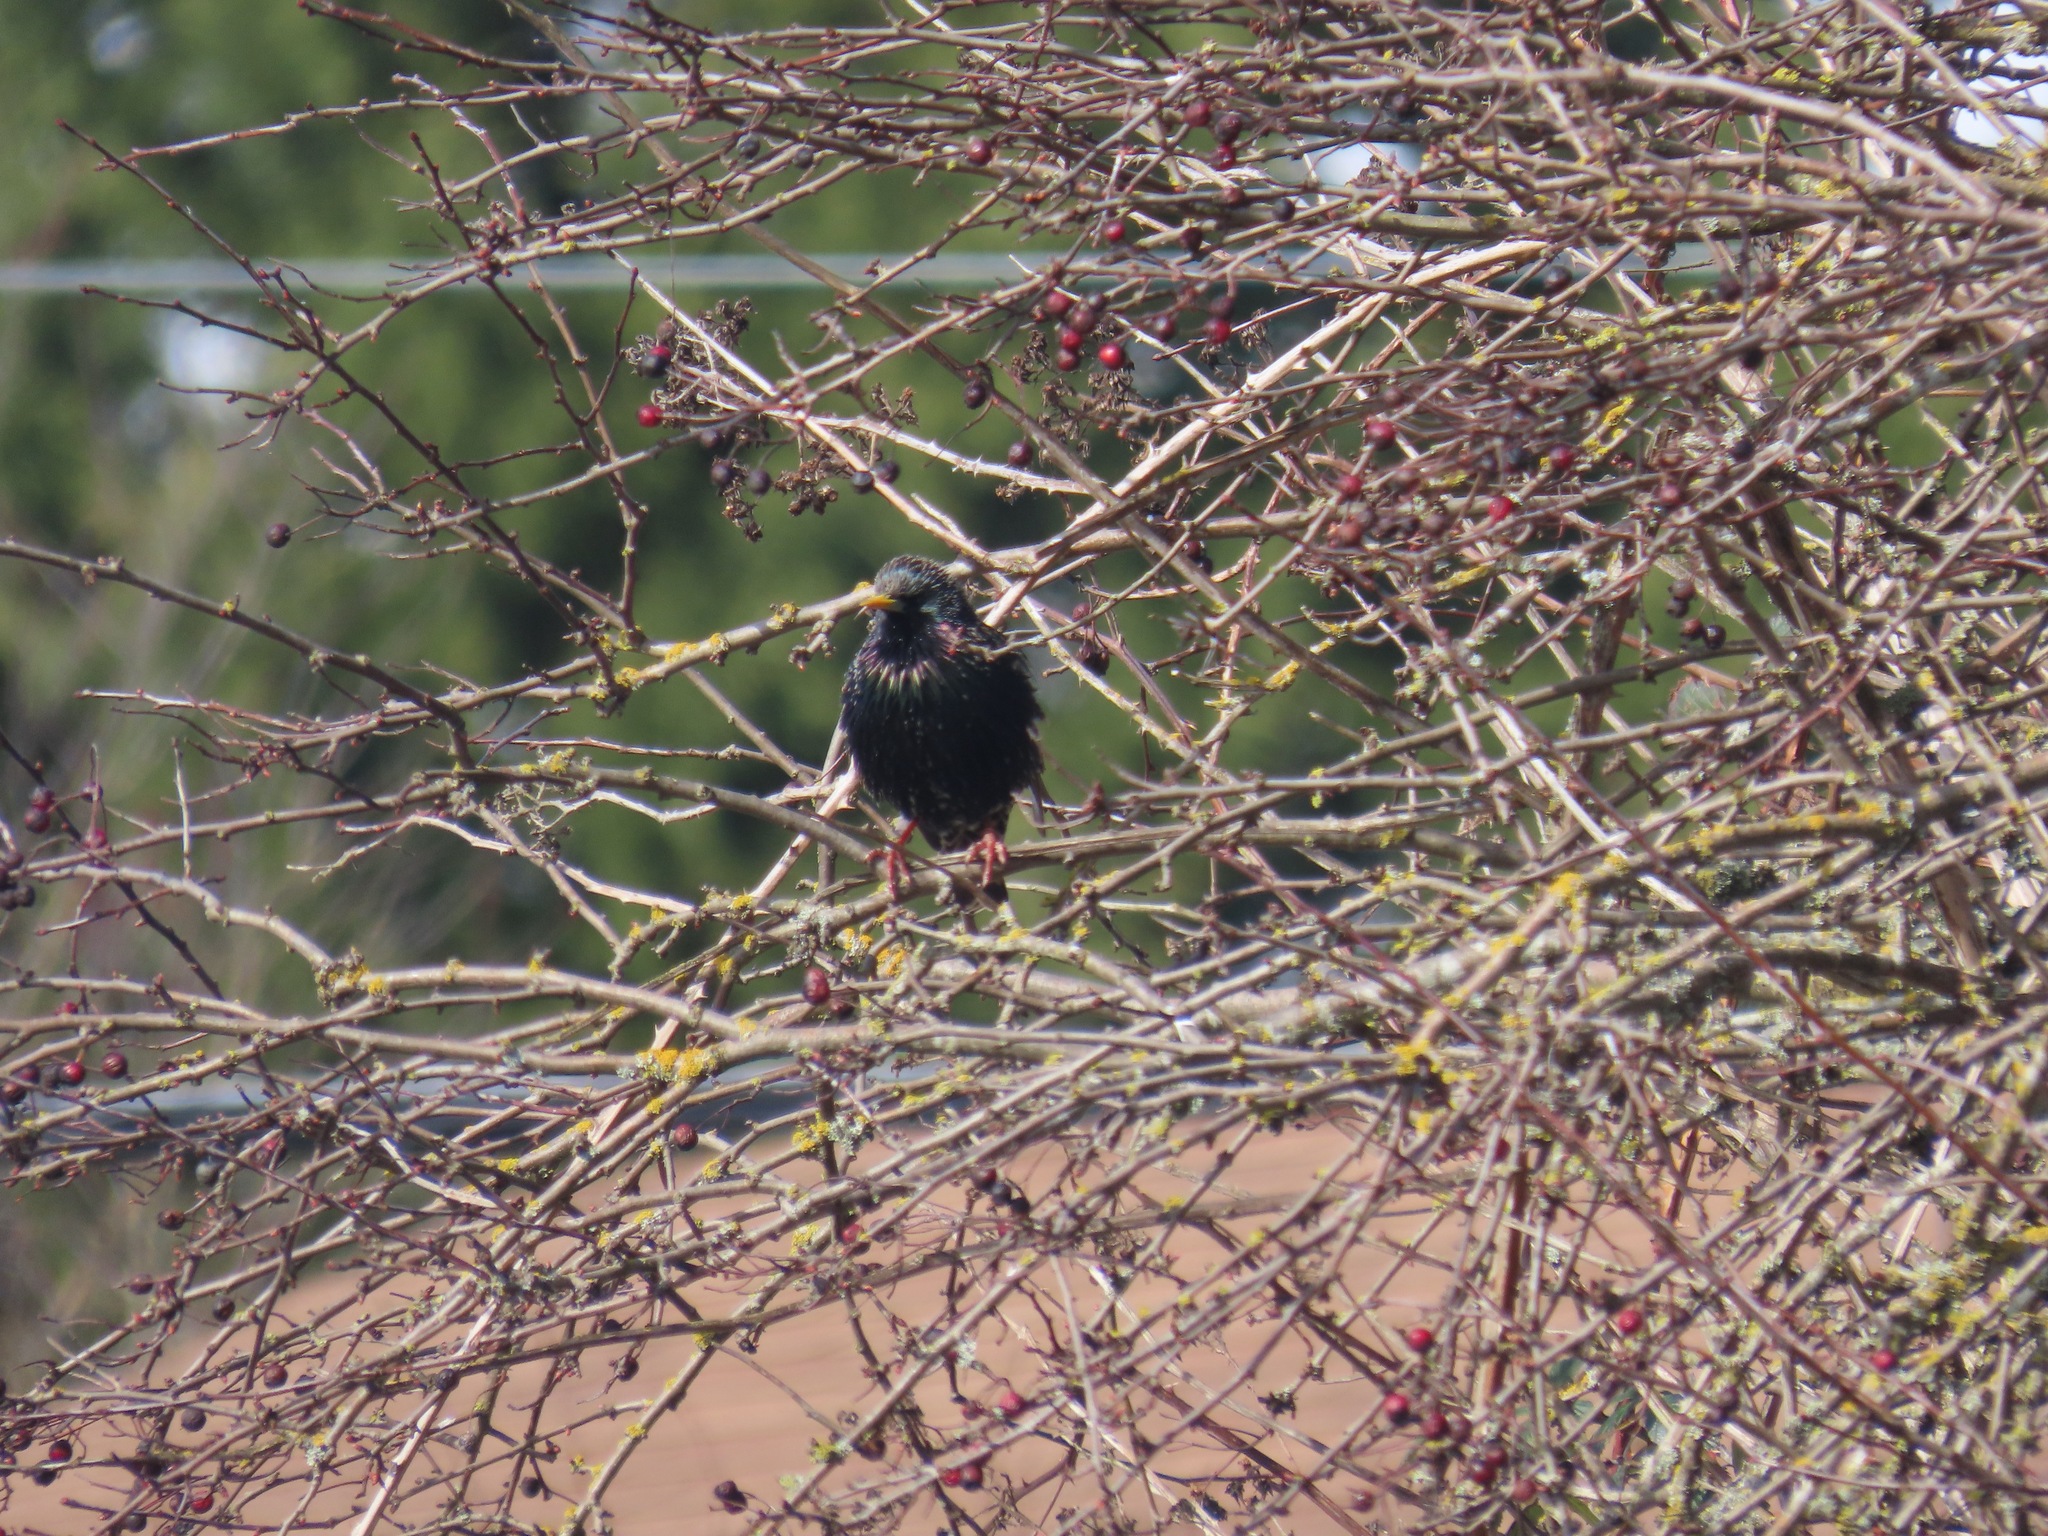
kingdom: Animalia
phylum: Chordata
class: Aves
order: Passeriformes
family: Sturnidae
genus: Sturnus
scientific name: Sturnus vulgaris
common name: Common starling
